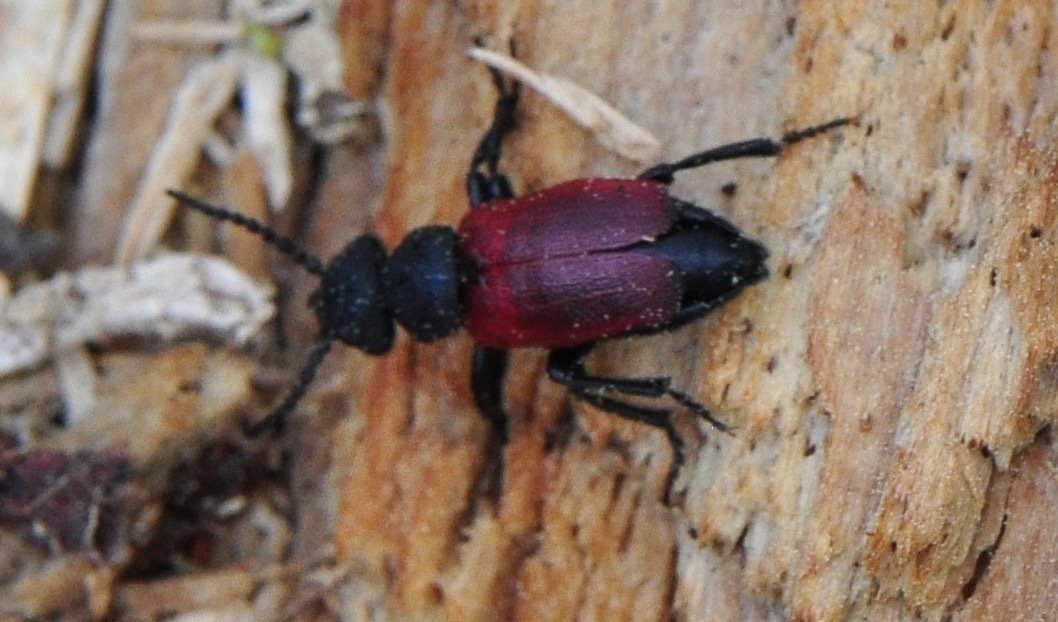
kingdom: Animalia
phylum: Arthropoda
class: Insecta
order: Coleoptera
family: Meloidae
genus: Tricrania
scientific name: Tricrania sanguinipennis
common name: Blood-winged blister beetle
